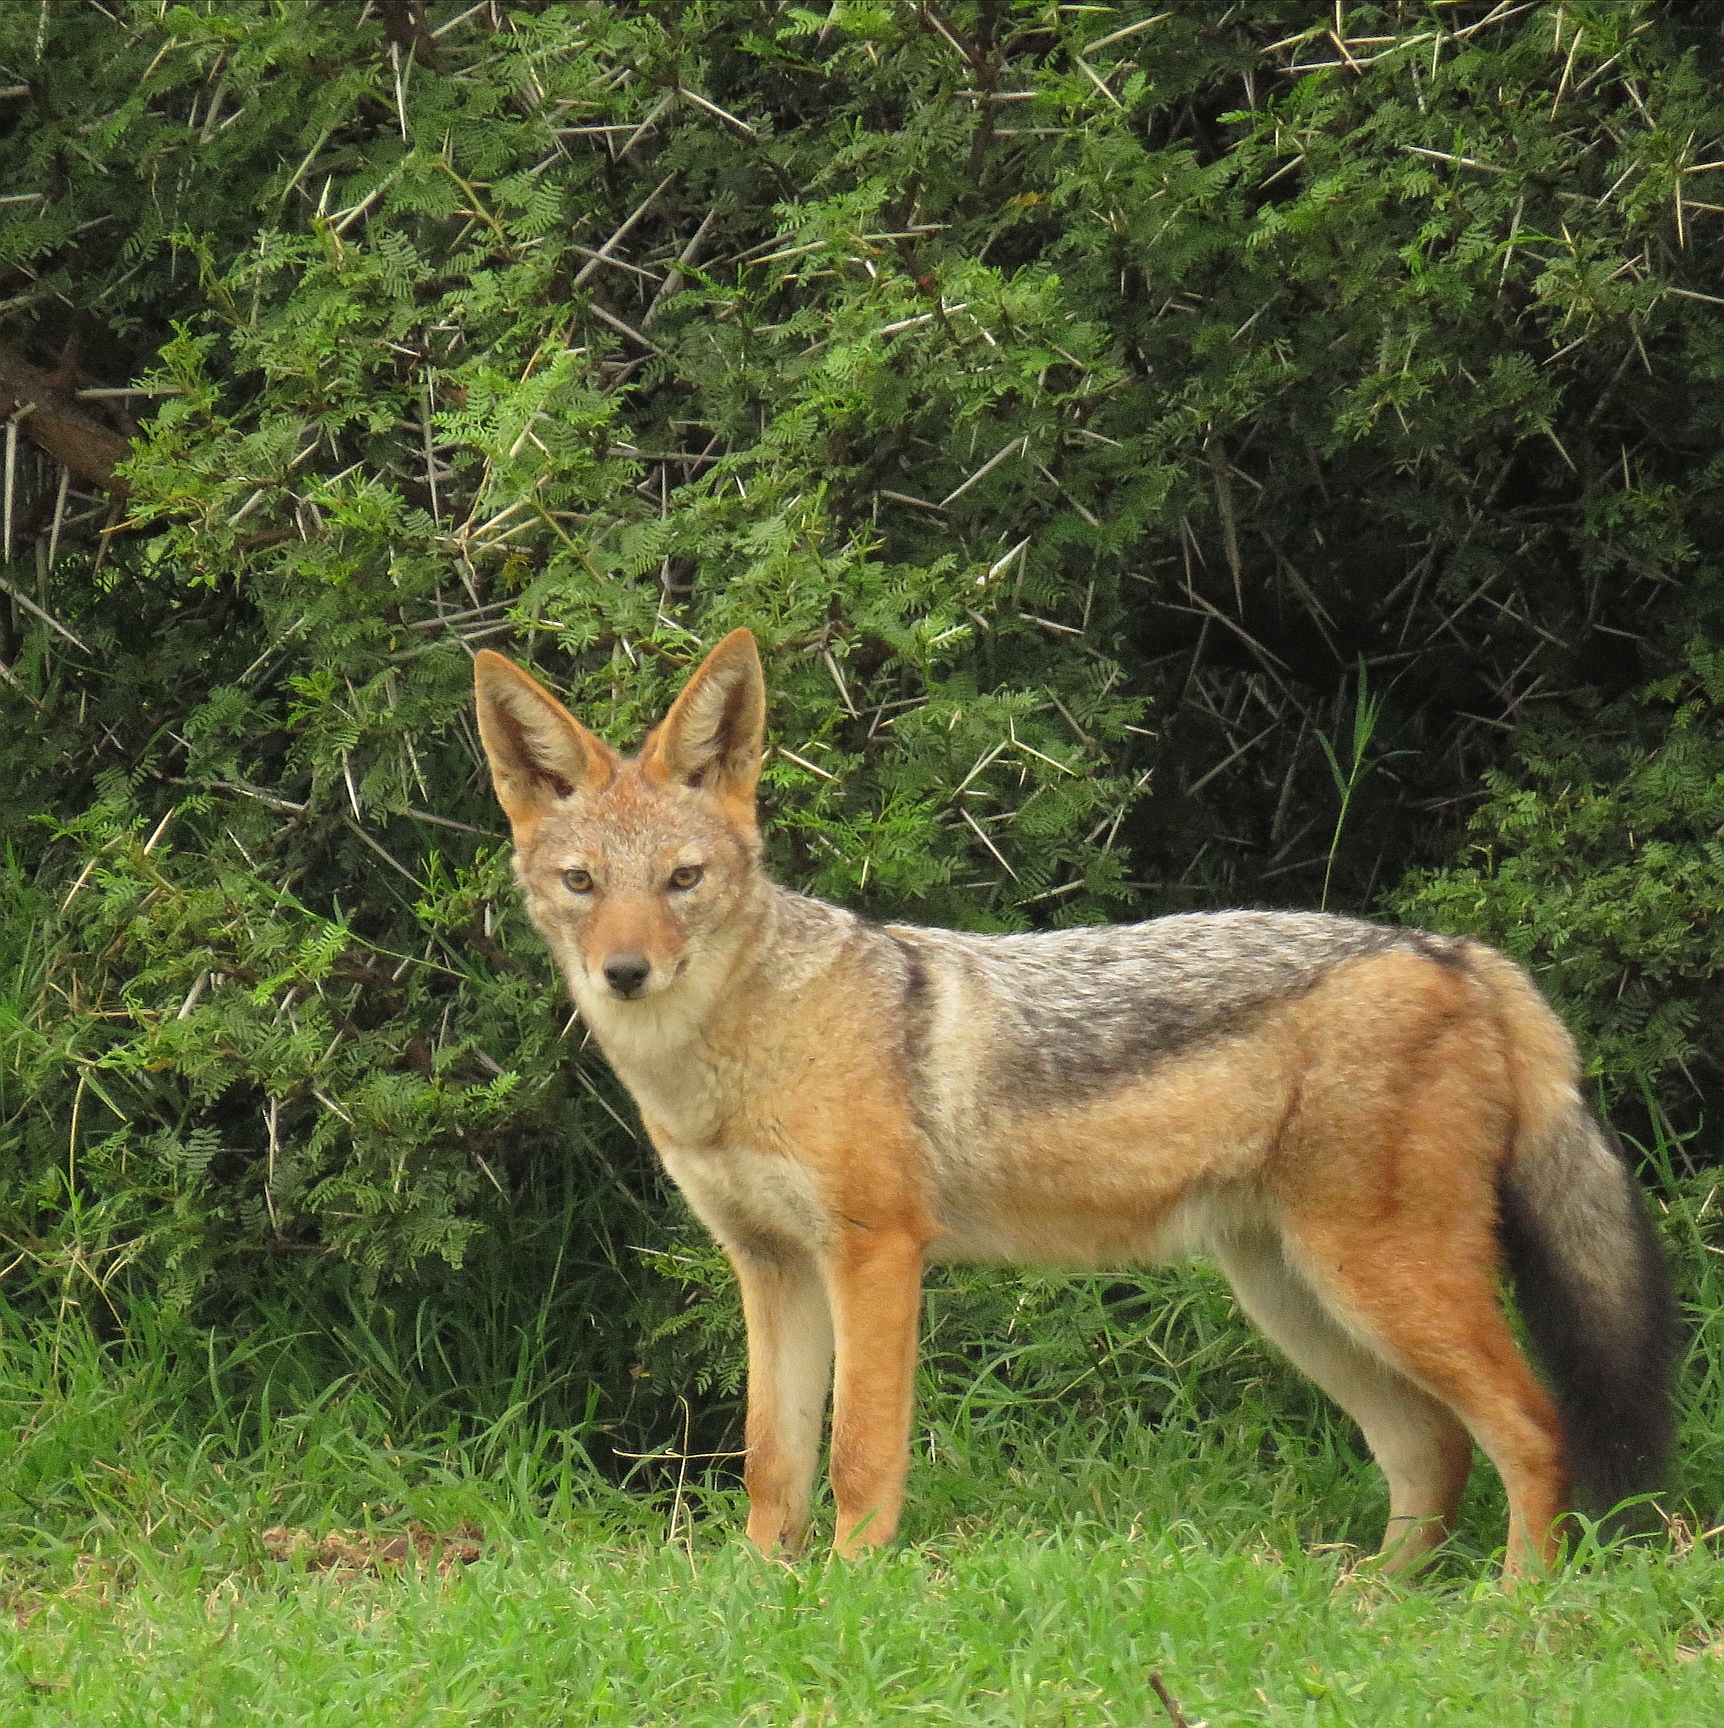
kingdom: Animalia
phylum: Chordata
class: Mammalia
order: Carnivora
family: Canidae
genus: Lupulella
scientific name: Lupulella
